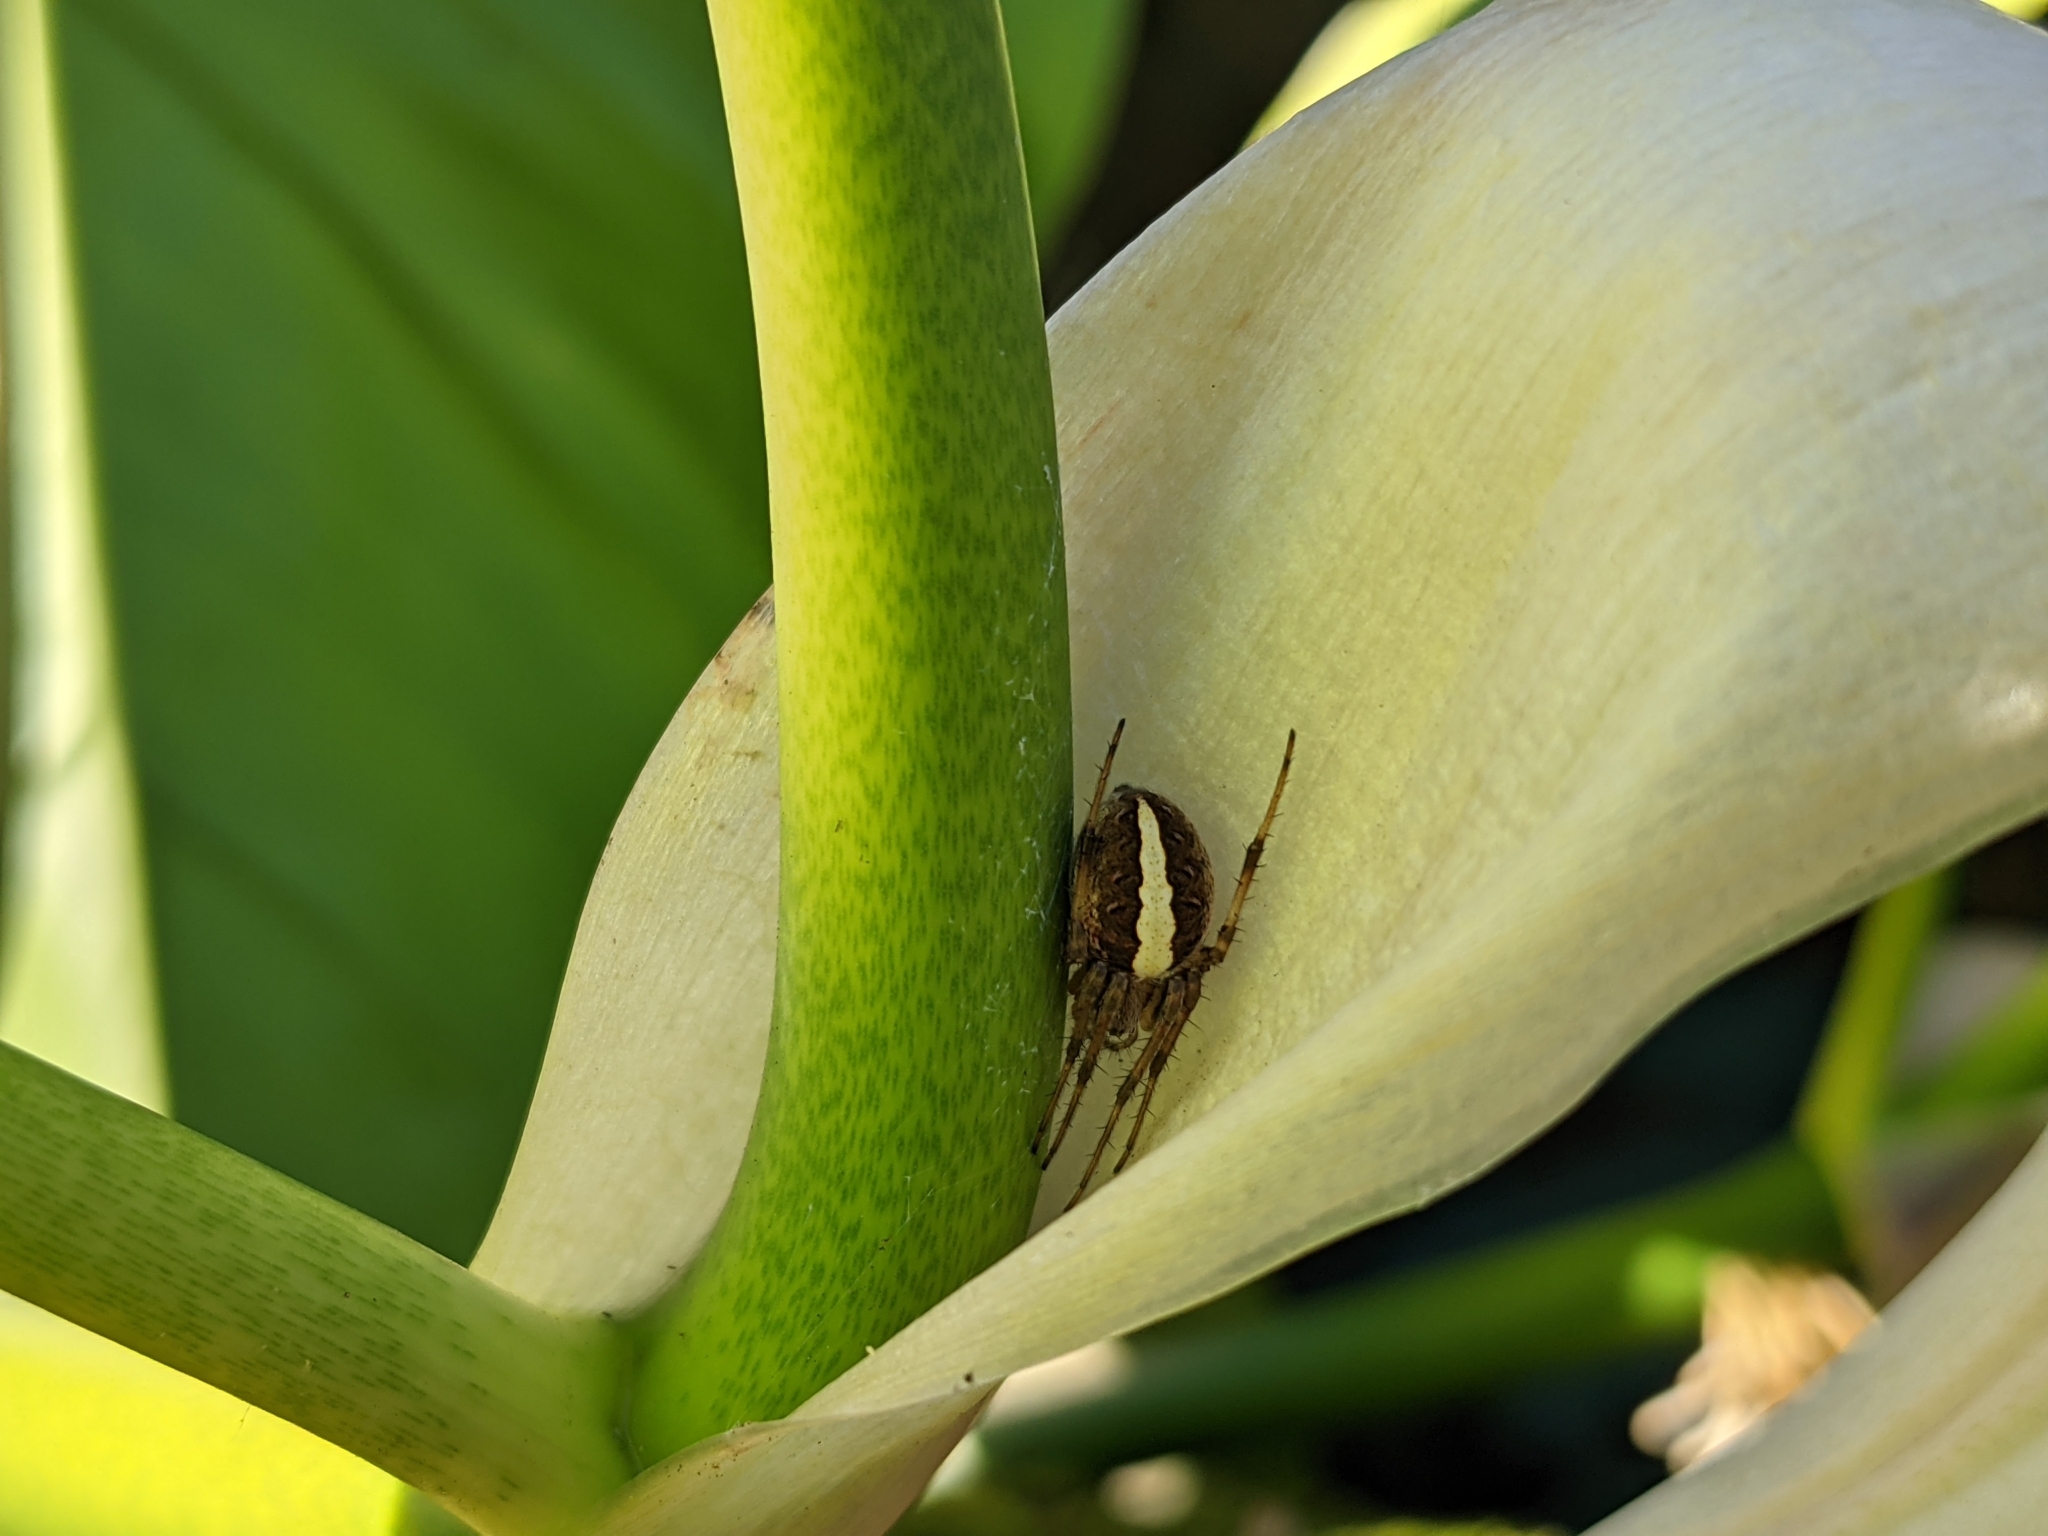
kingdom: Animalia
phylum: Arthropoda
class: Arachnida
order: Araneae
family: Araneidae
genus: Neoscona
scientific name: Neoscona theisi
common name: Spider
